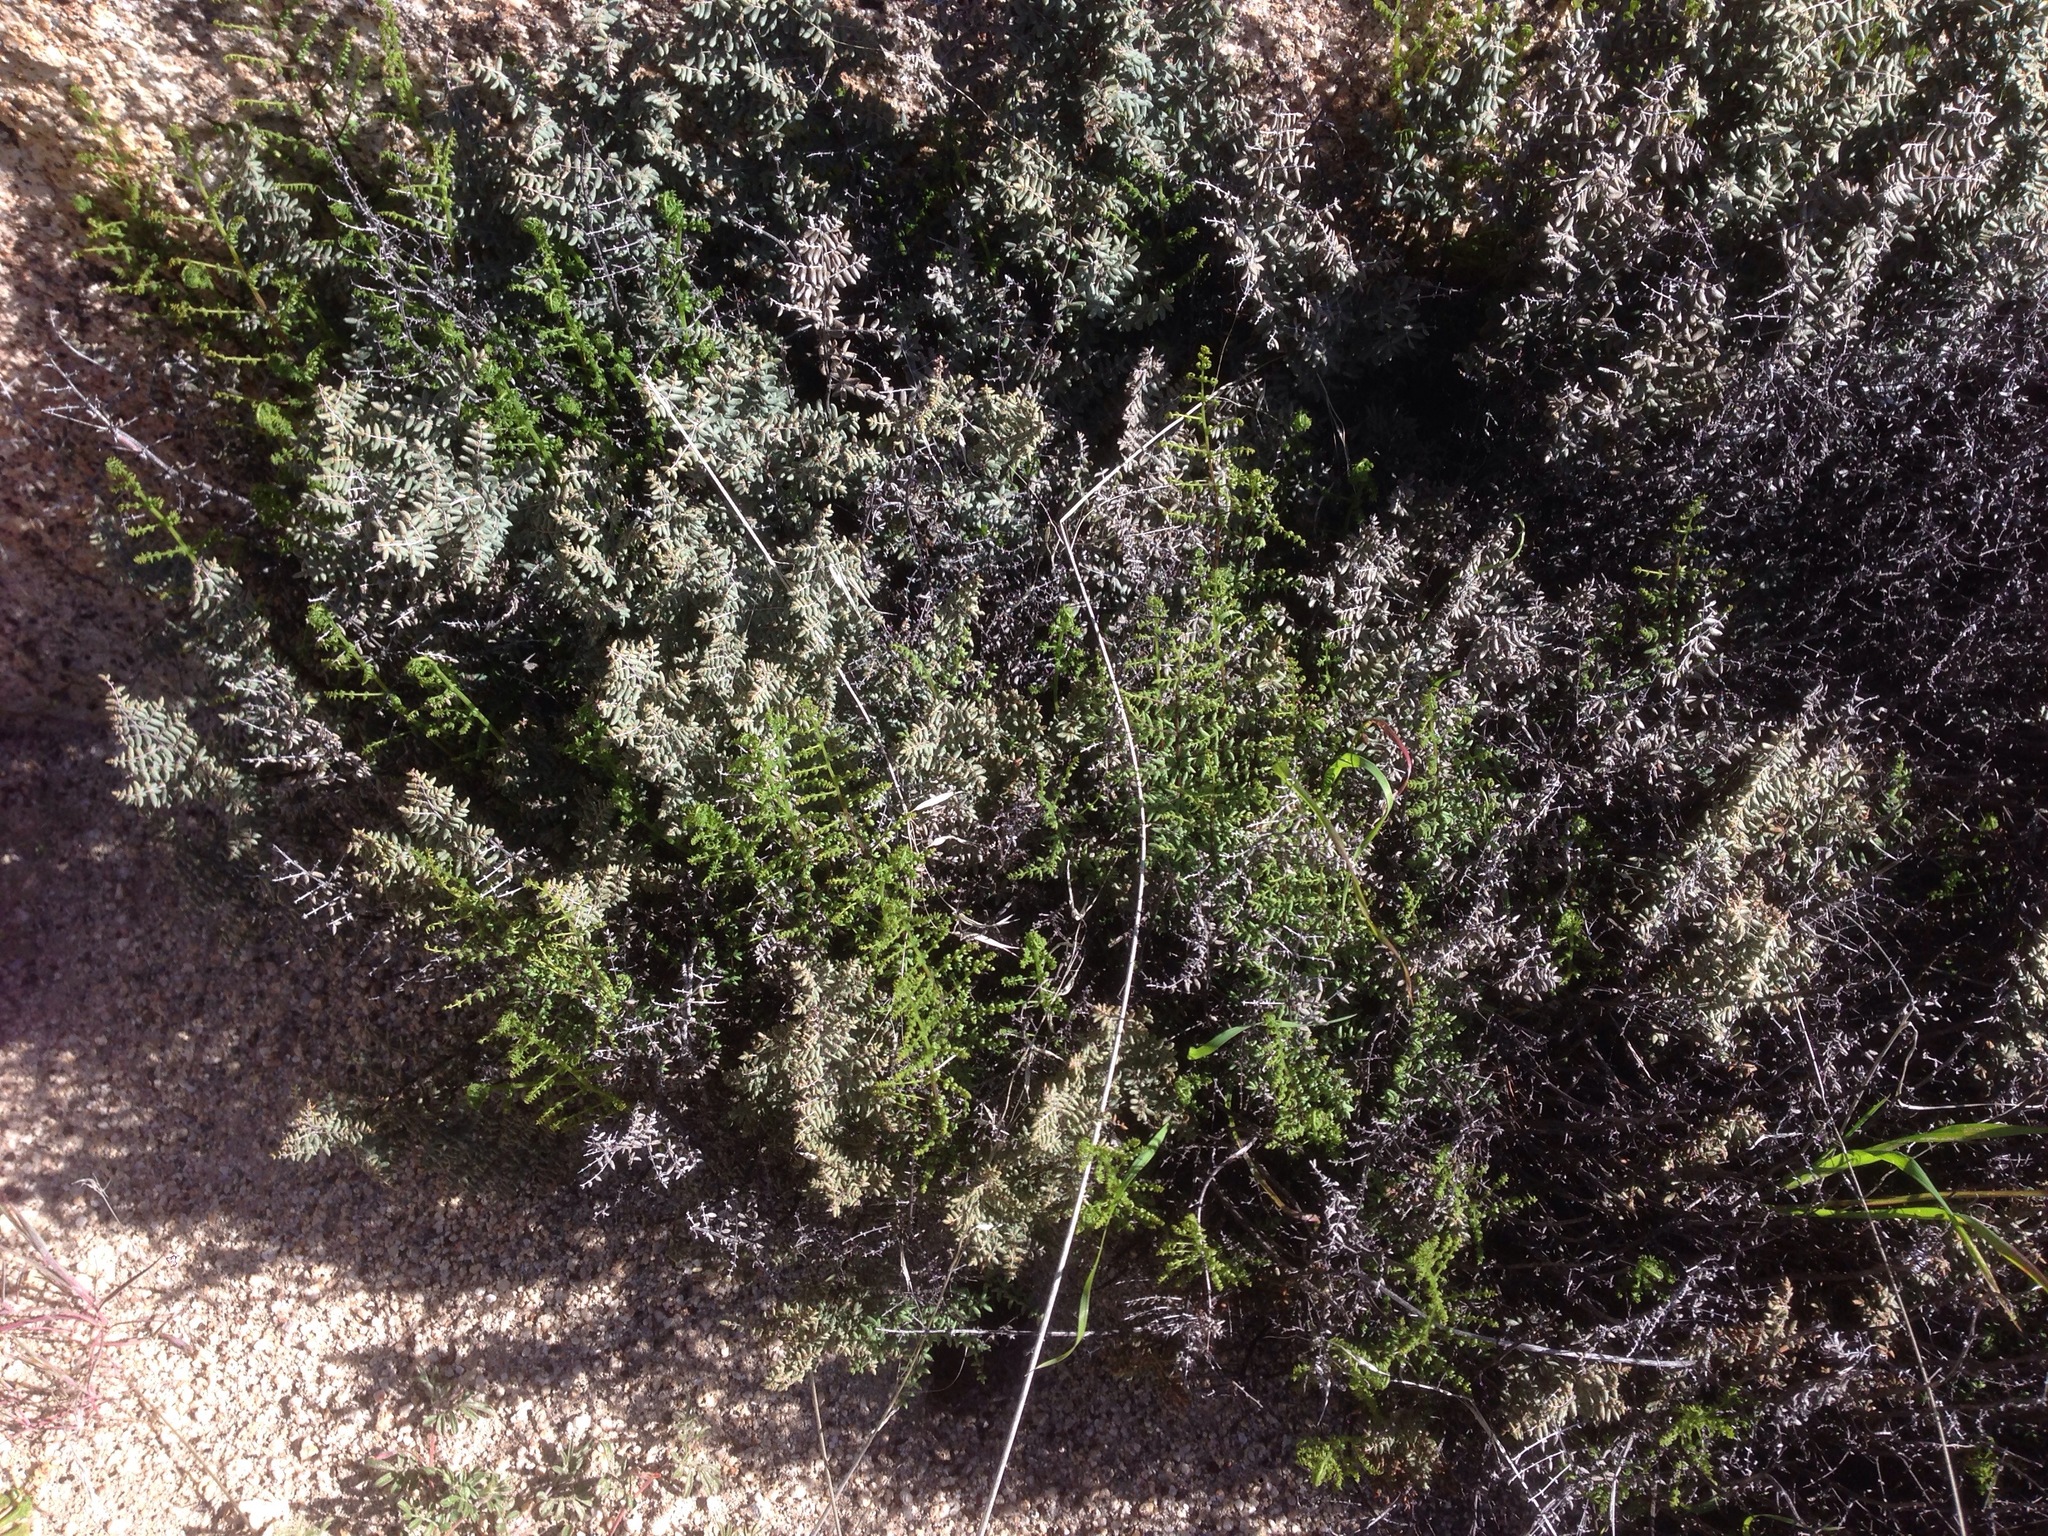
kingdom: Plantae
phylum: Tracheophyta
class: Polypodiopsida
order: Polypodiales
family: Pteridaceae
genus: Pellaea
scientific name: Pellaea mucronata
